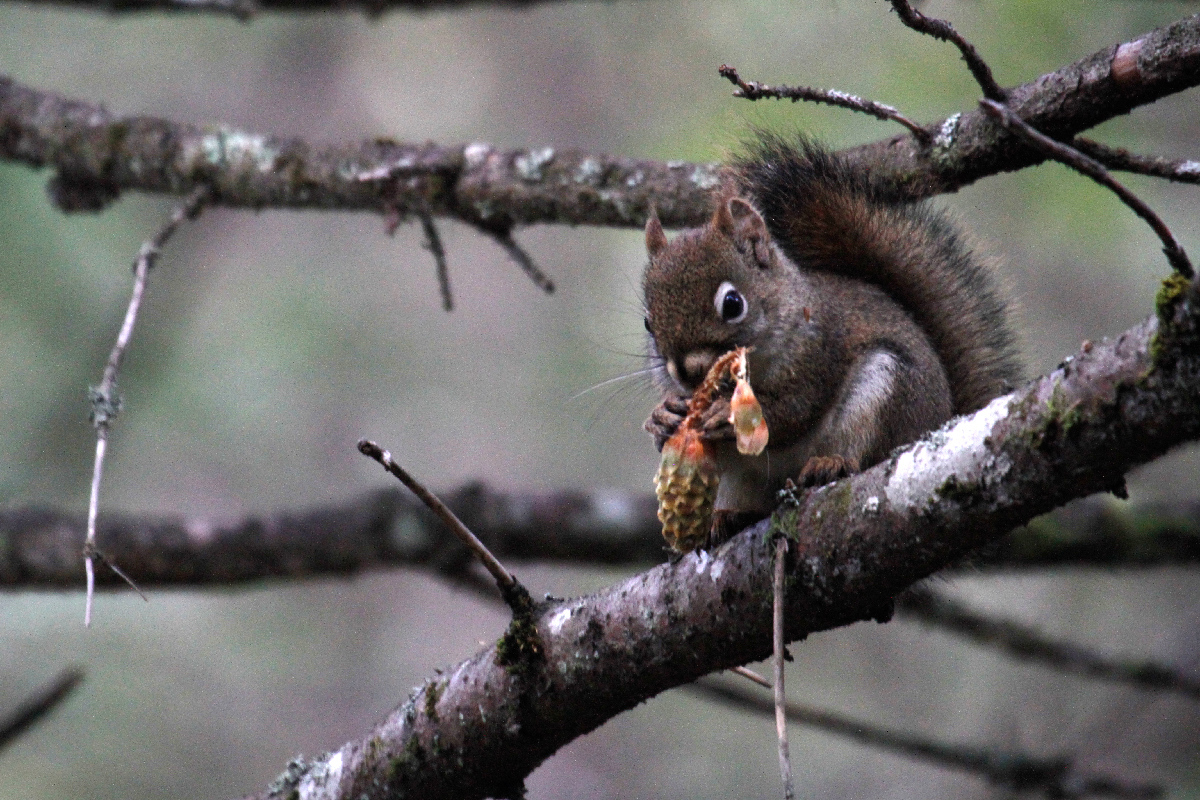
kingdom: Animalia
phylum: Chordata
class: Mammalia
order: Rodentia
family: Sciuridae
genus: Tamiasciurus
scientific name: Tamiasciurus hudsonicus
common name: Red squirrel
